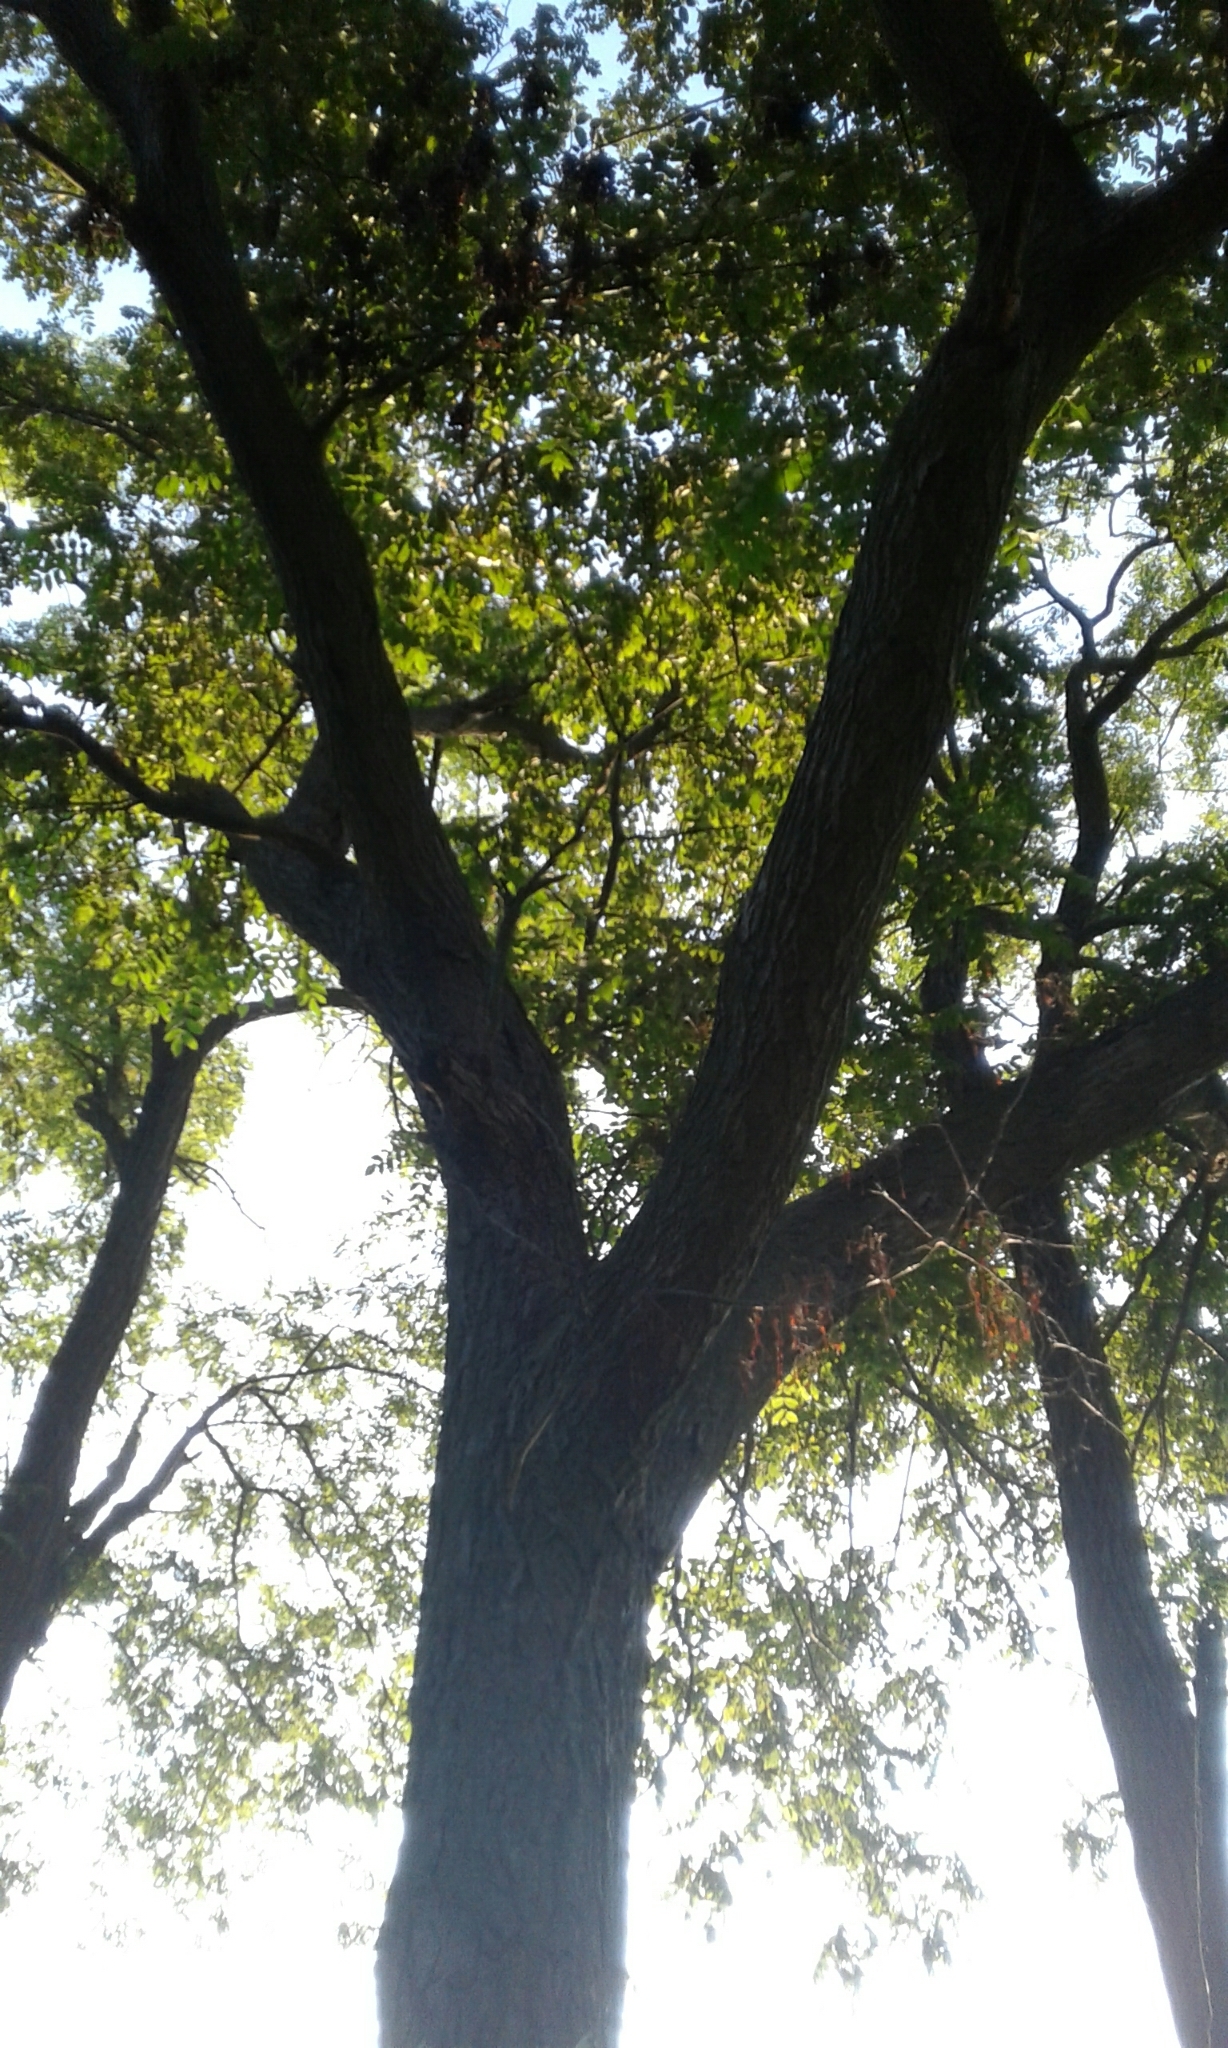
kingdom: Plantae
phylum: Tracheophyta
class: Magnoliopsida
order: Fagales
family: Juglandaceae
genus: Juglans
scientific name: Juglans cinerea
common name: Butternut
